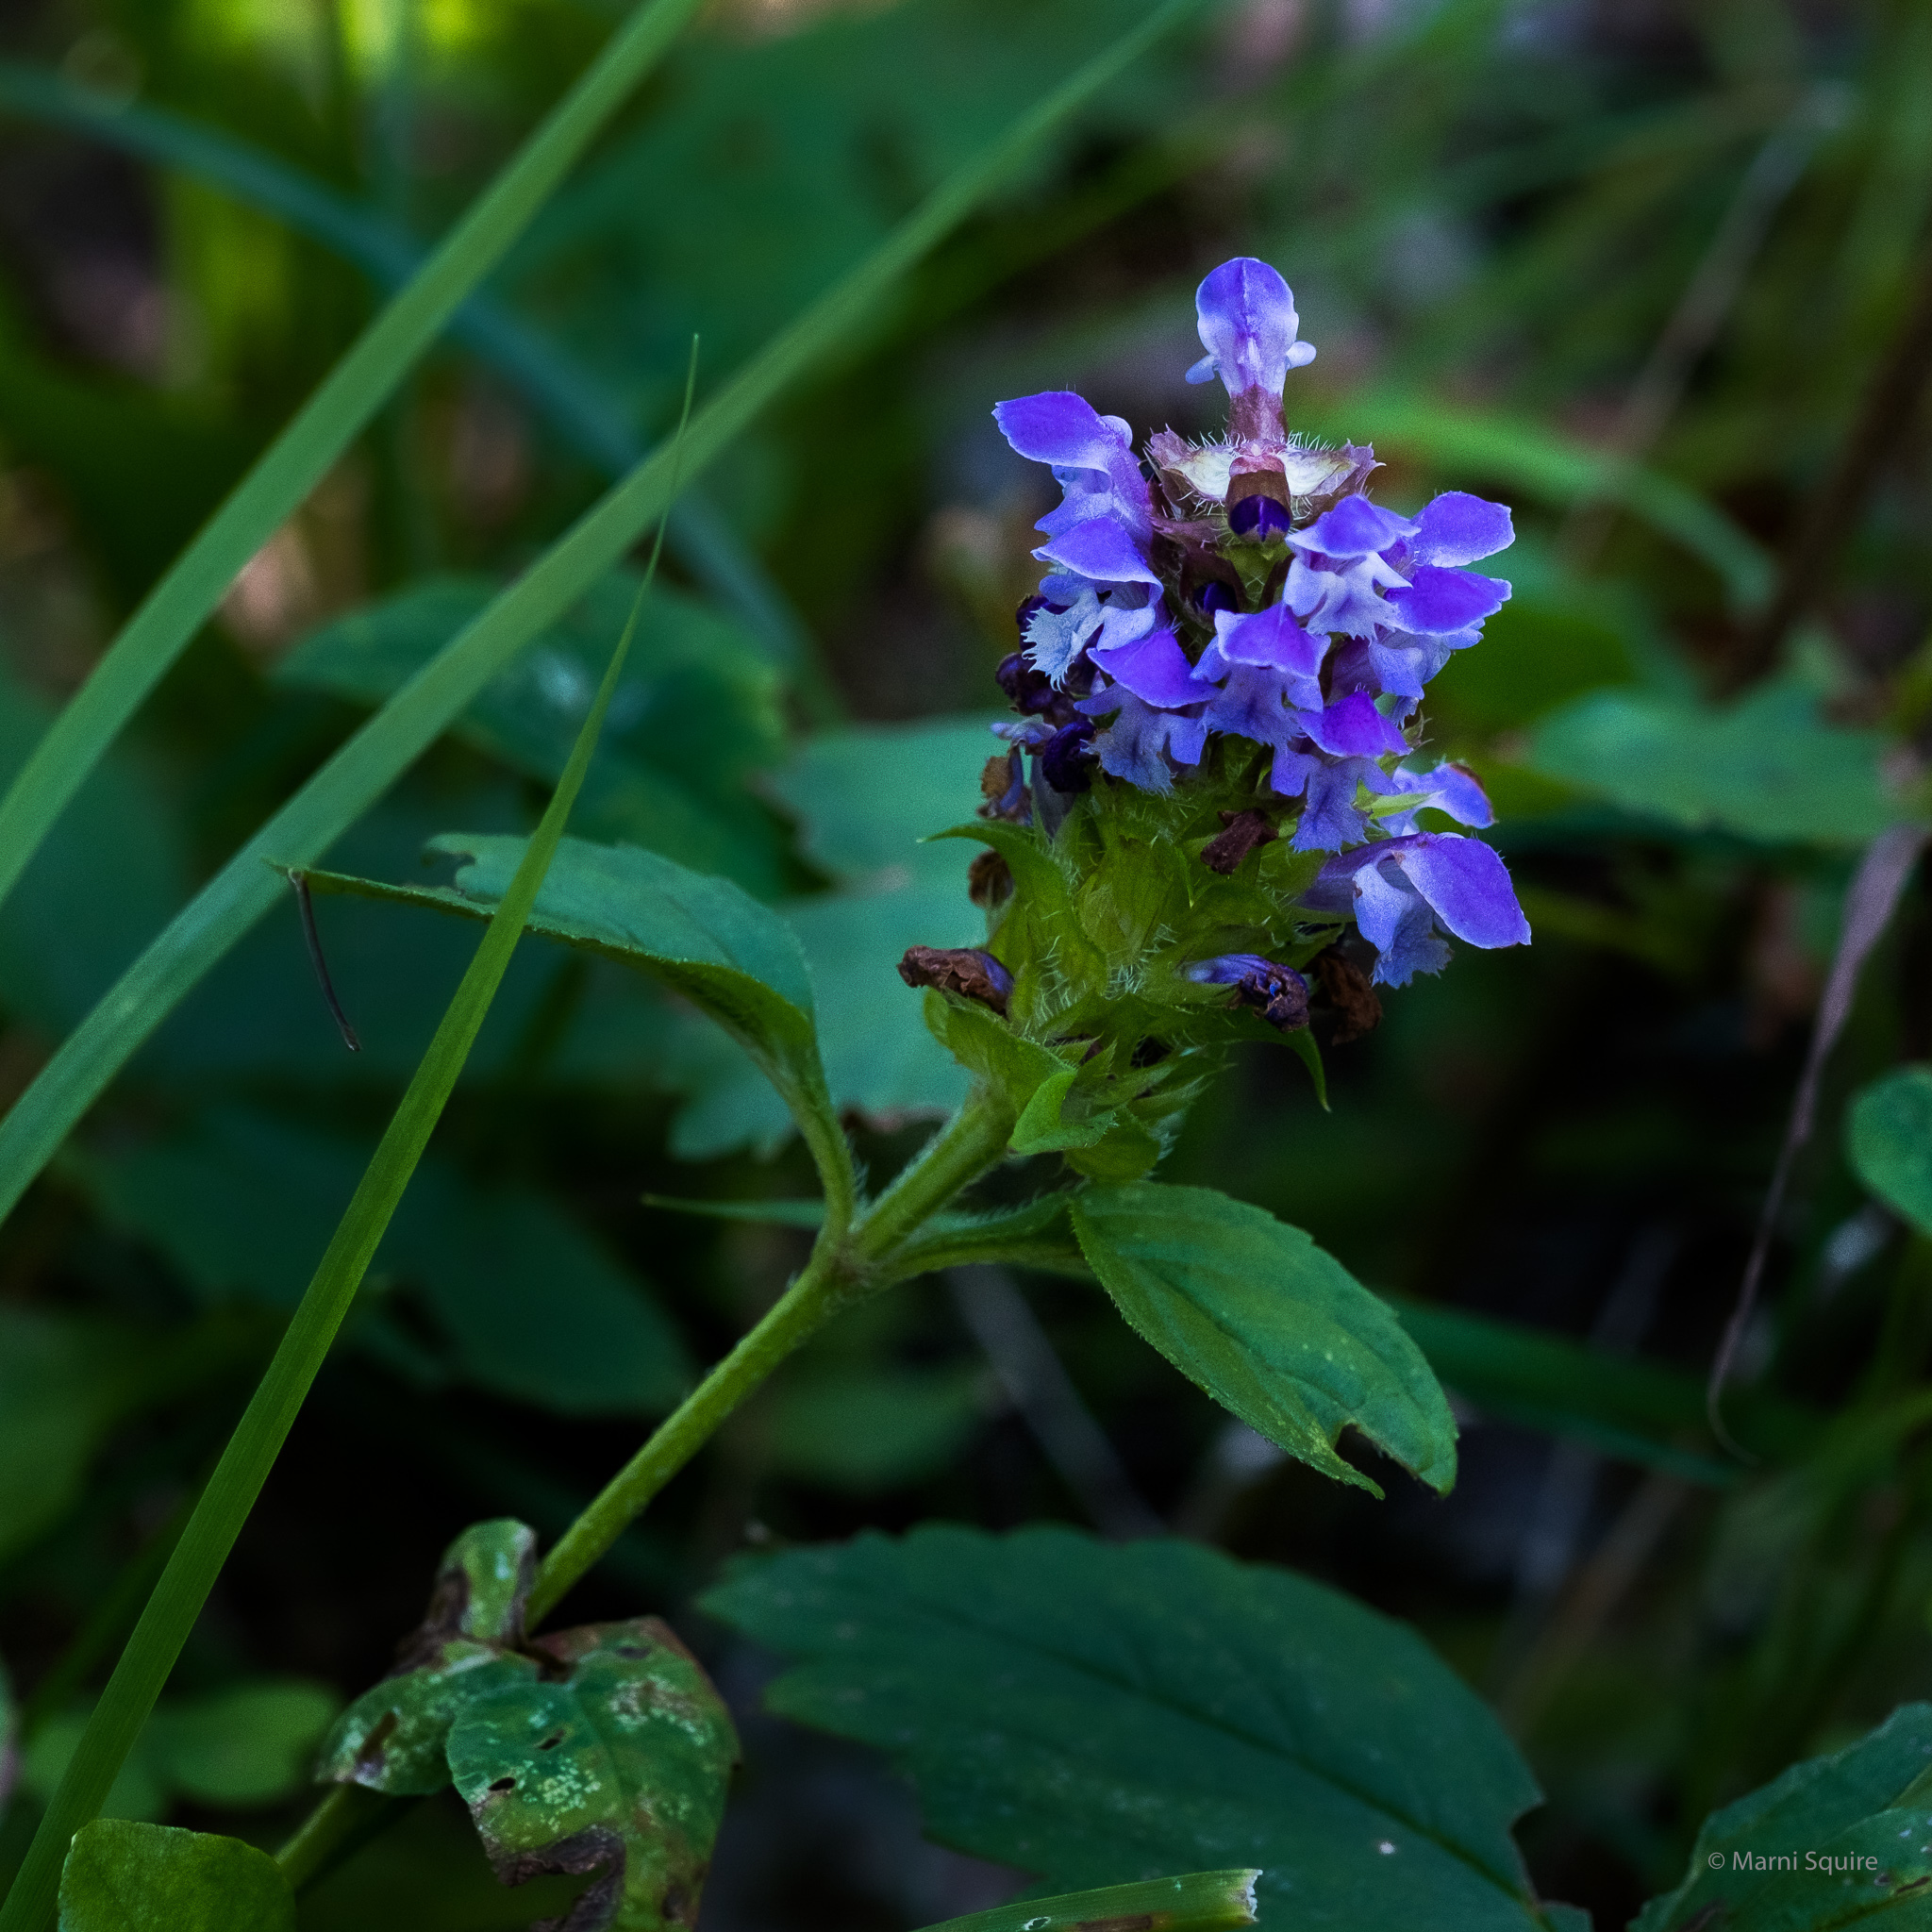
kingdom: Plantae
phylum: Tracheophyta
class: Magnoliopsida
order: Lamiales
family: Lamiaceae
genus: Prunella
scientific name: Prunella vulgaris
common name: Heal-all
